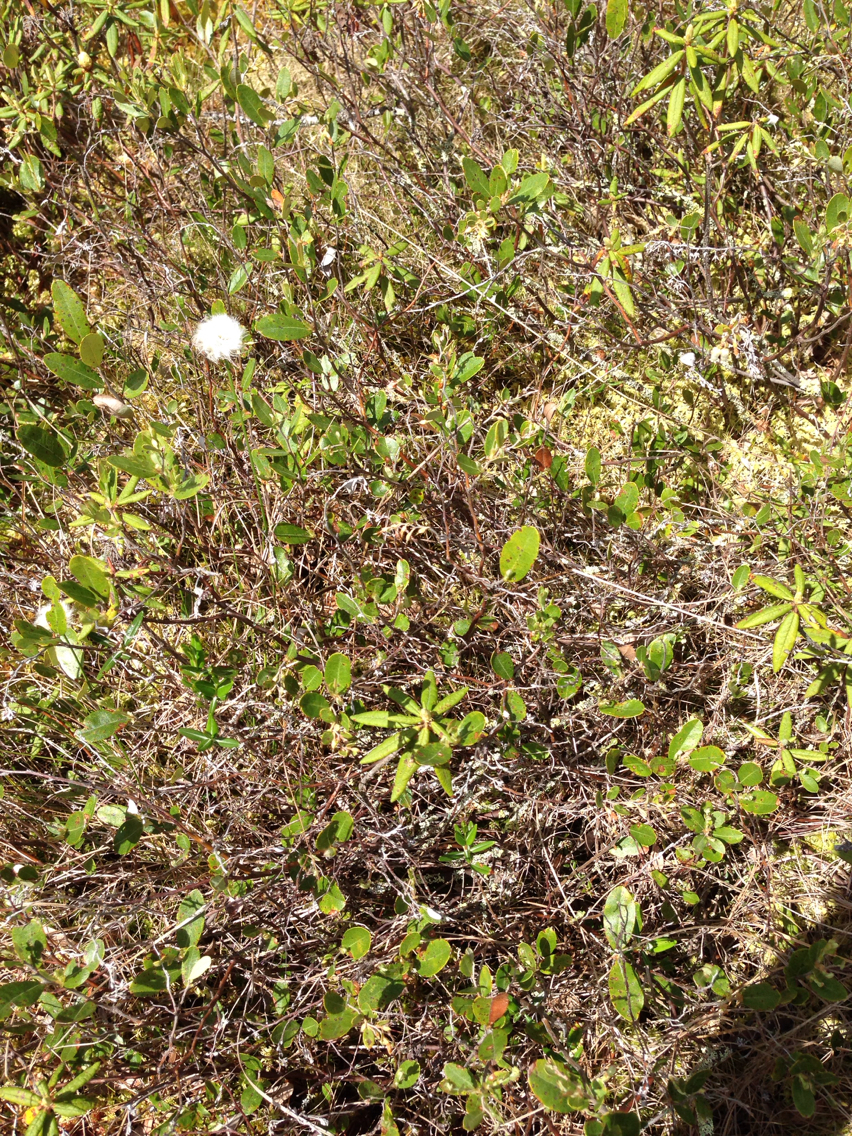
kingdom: Plantae
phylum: Tracheophyta
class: Magnoliopsida
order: Ericales
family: Ericaceae
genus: Chamaedaphne
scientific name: Chamaedaphne calyculata
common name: Leatherleaf
